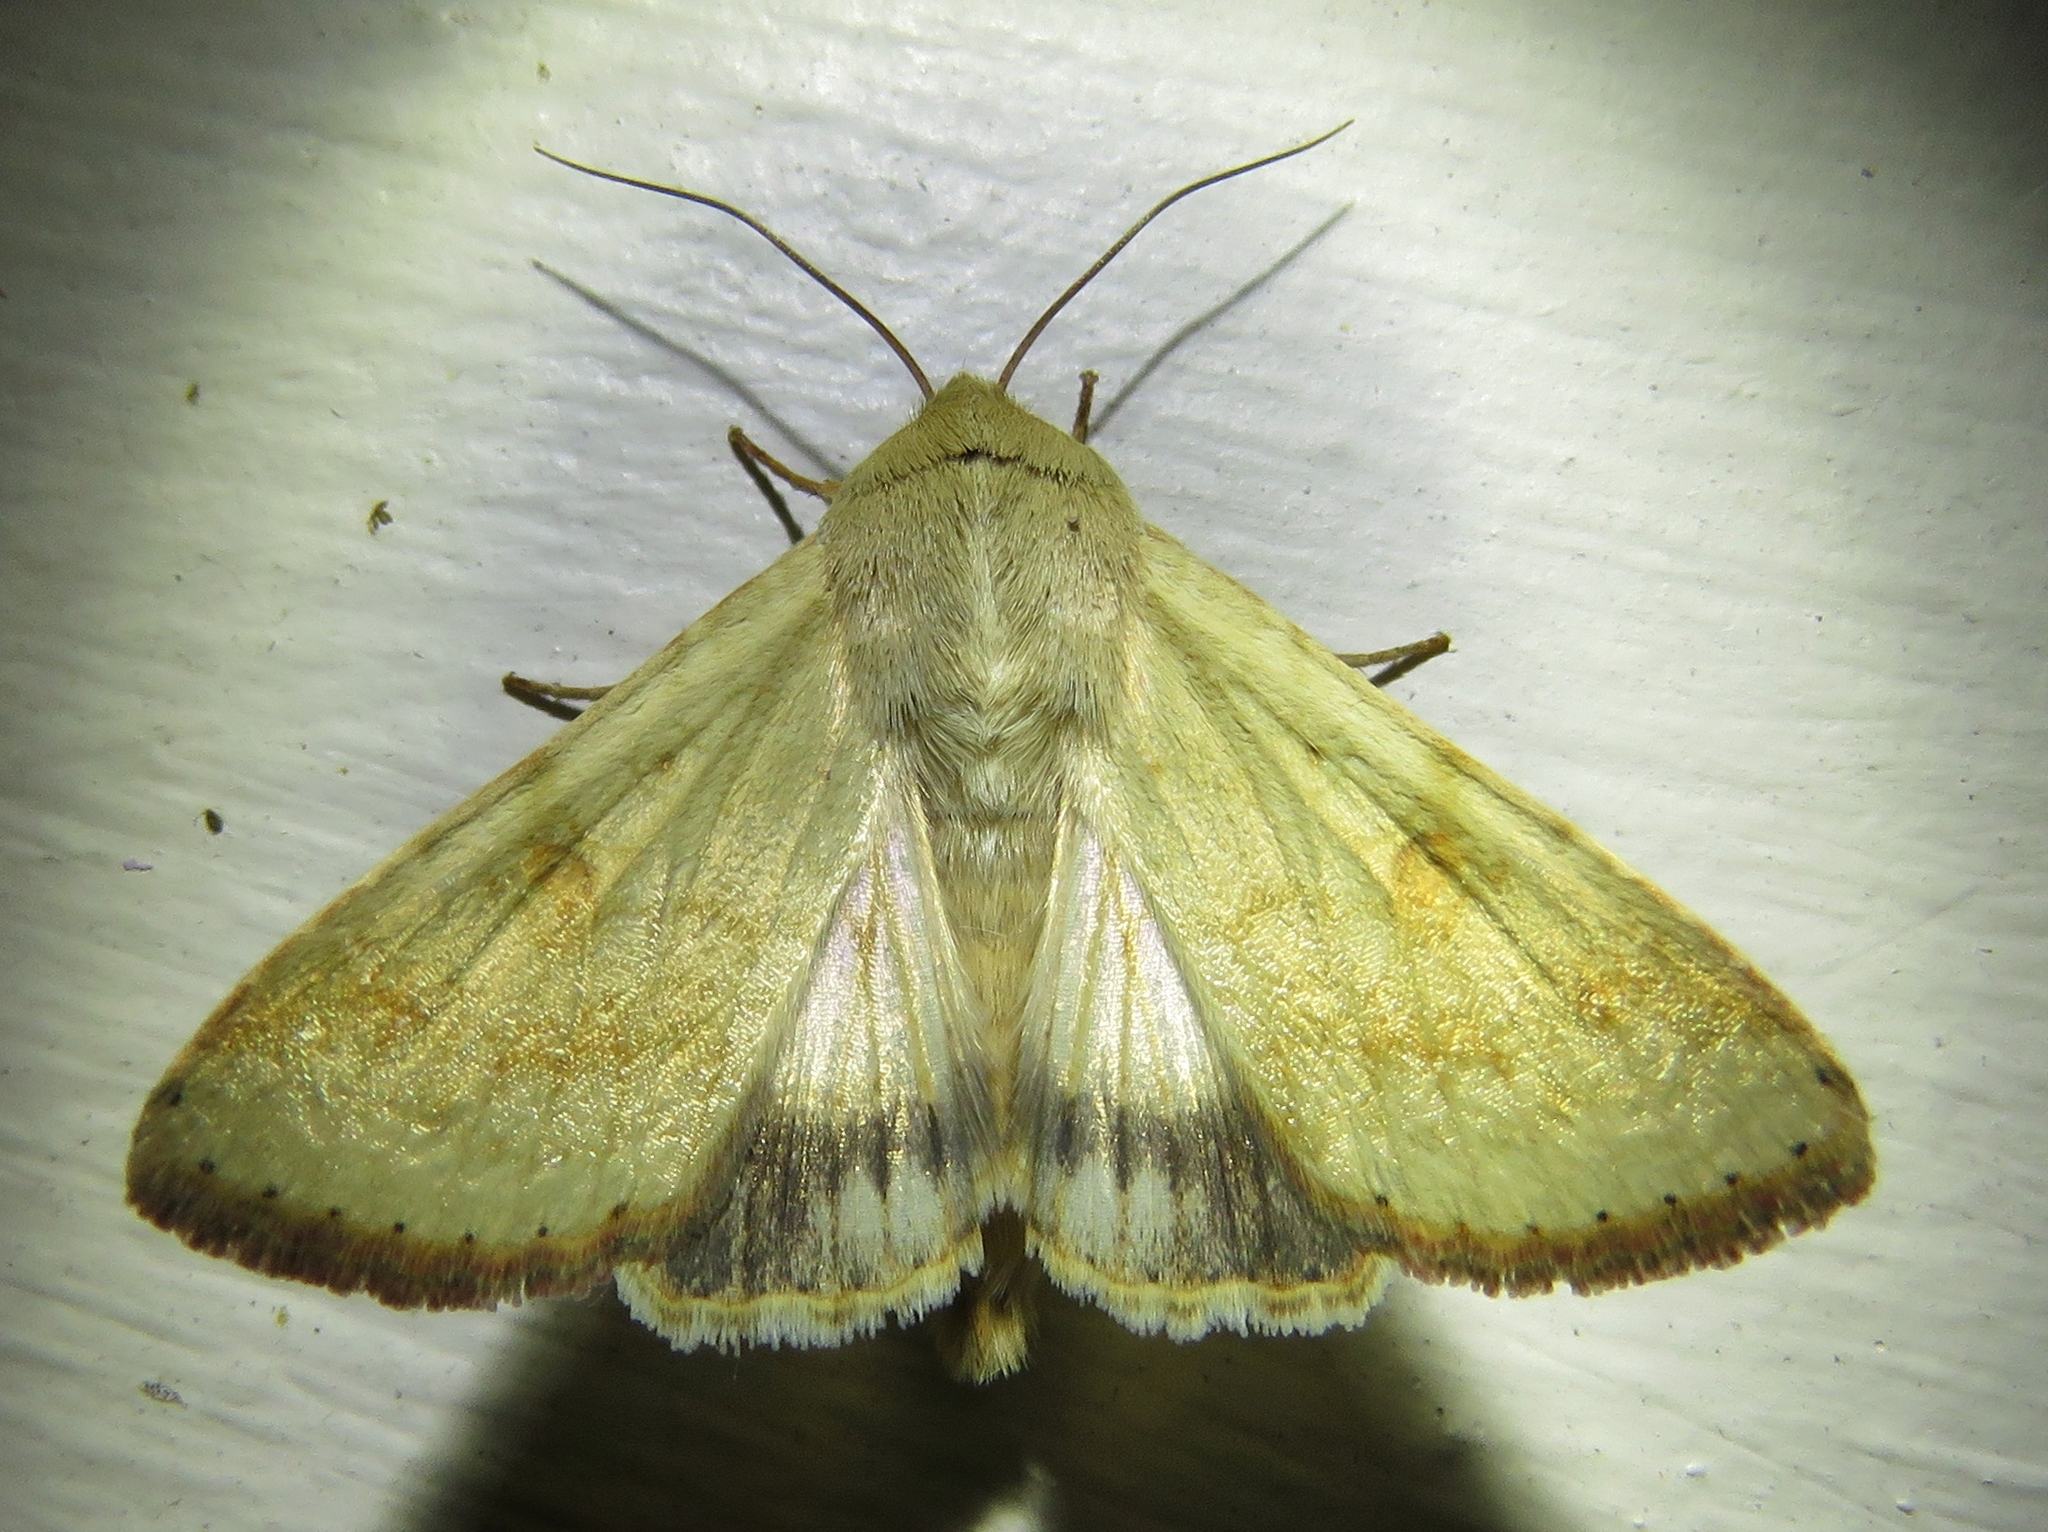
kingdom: Animalia
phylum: Arthropoda
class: Insecta
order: Lepidoptera
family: Noctuidae
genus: Helicoverpa
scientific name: Helicoverpa zea
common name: Bollworm
